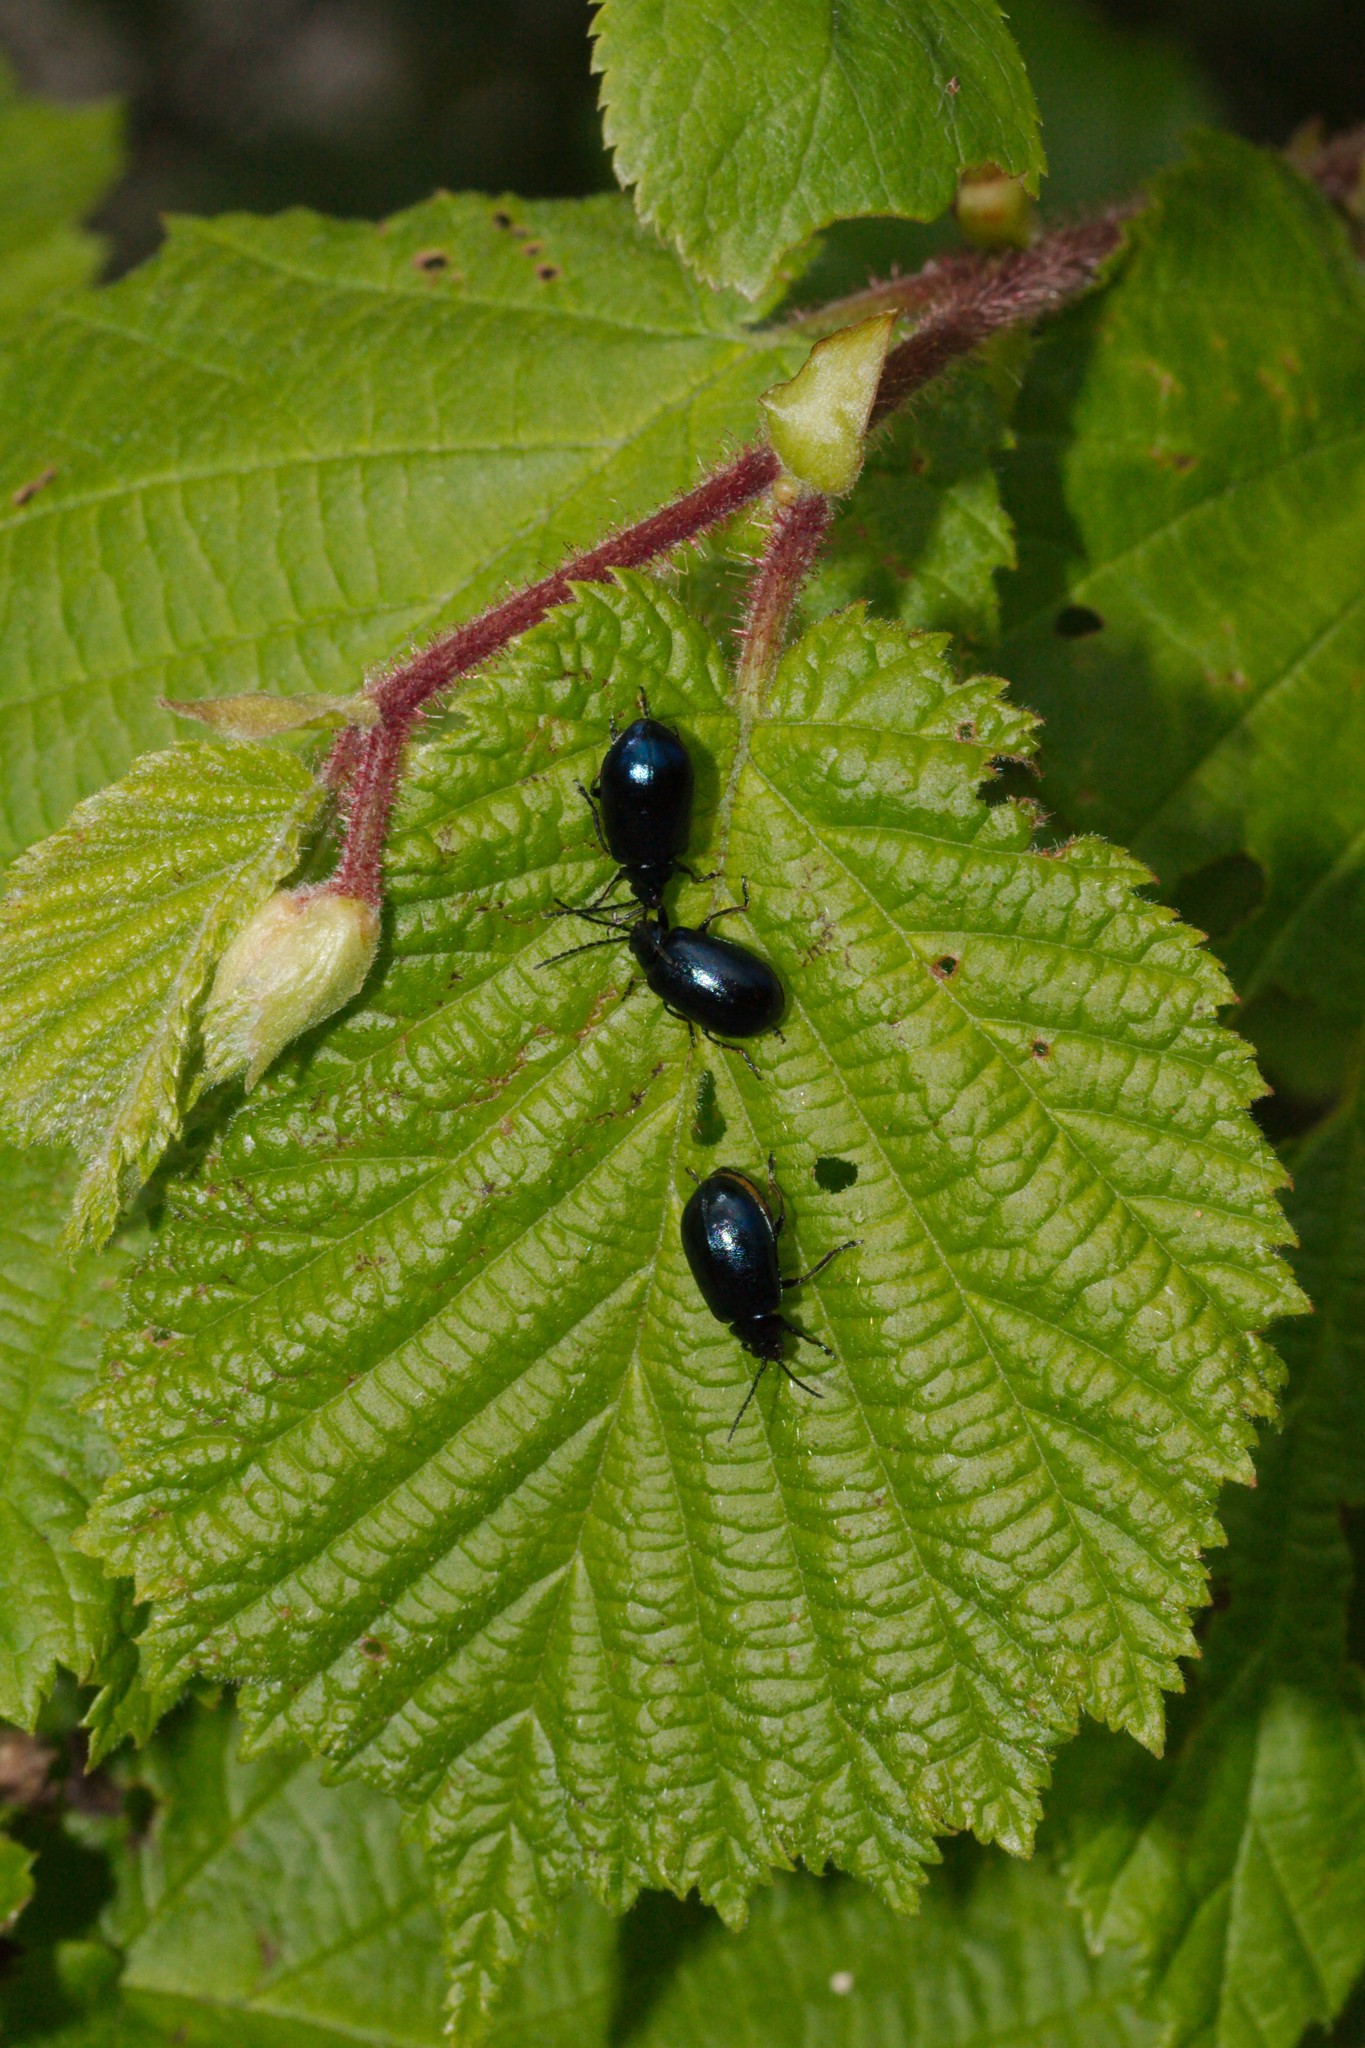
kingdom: Animalia
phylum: Arthropoda
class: Insecta
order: Coleoptera
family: Chrysomelidae
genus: Agelastica
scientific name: Agelastica alni
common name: Alder leaf beetle
